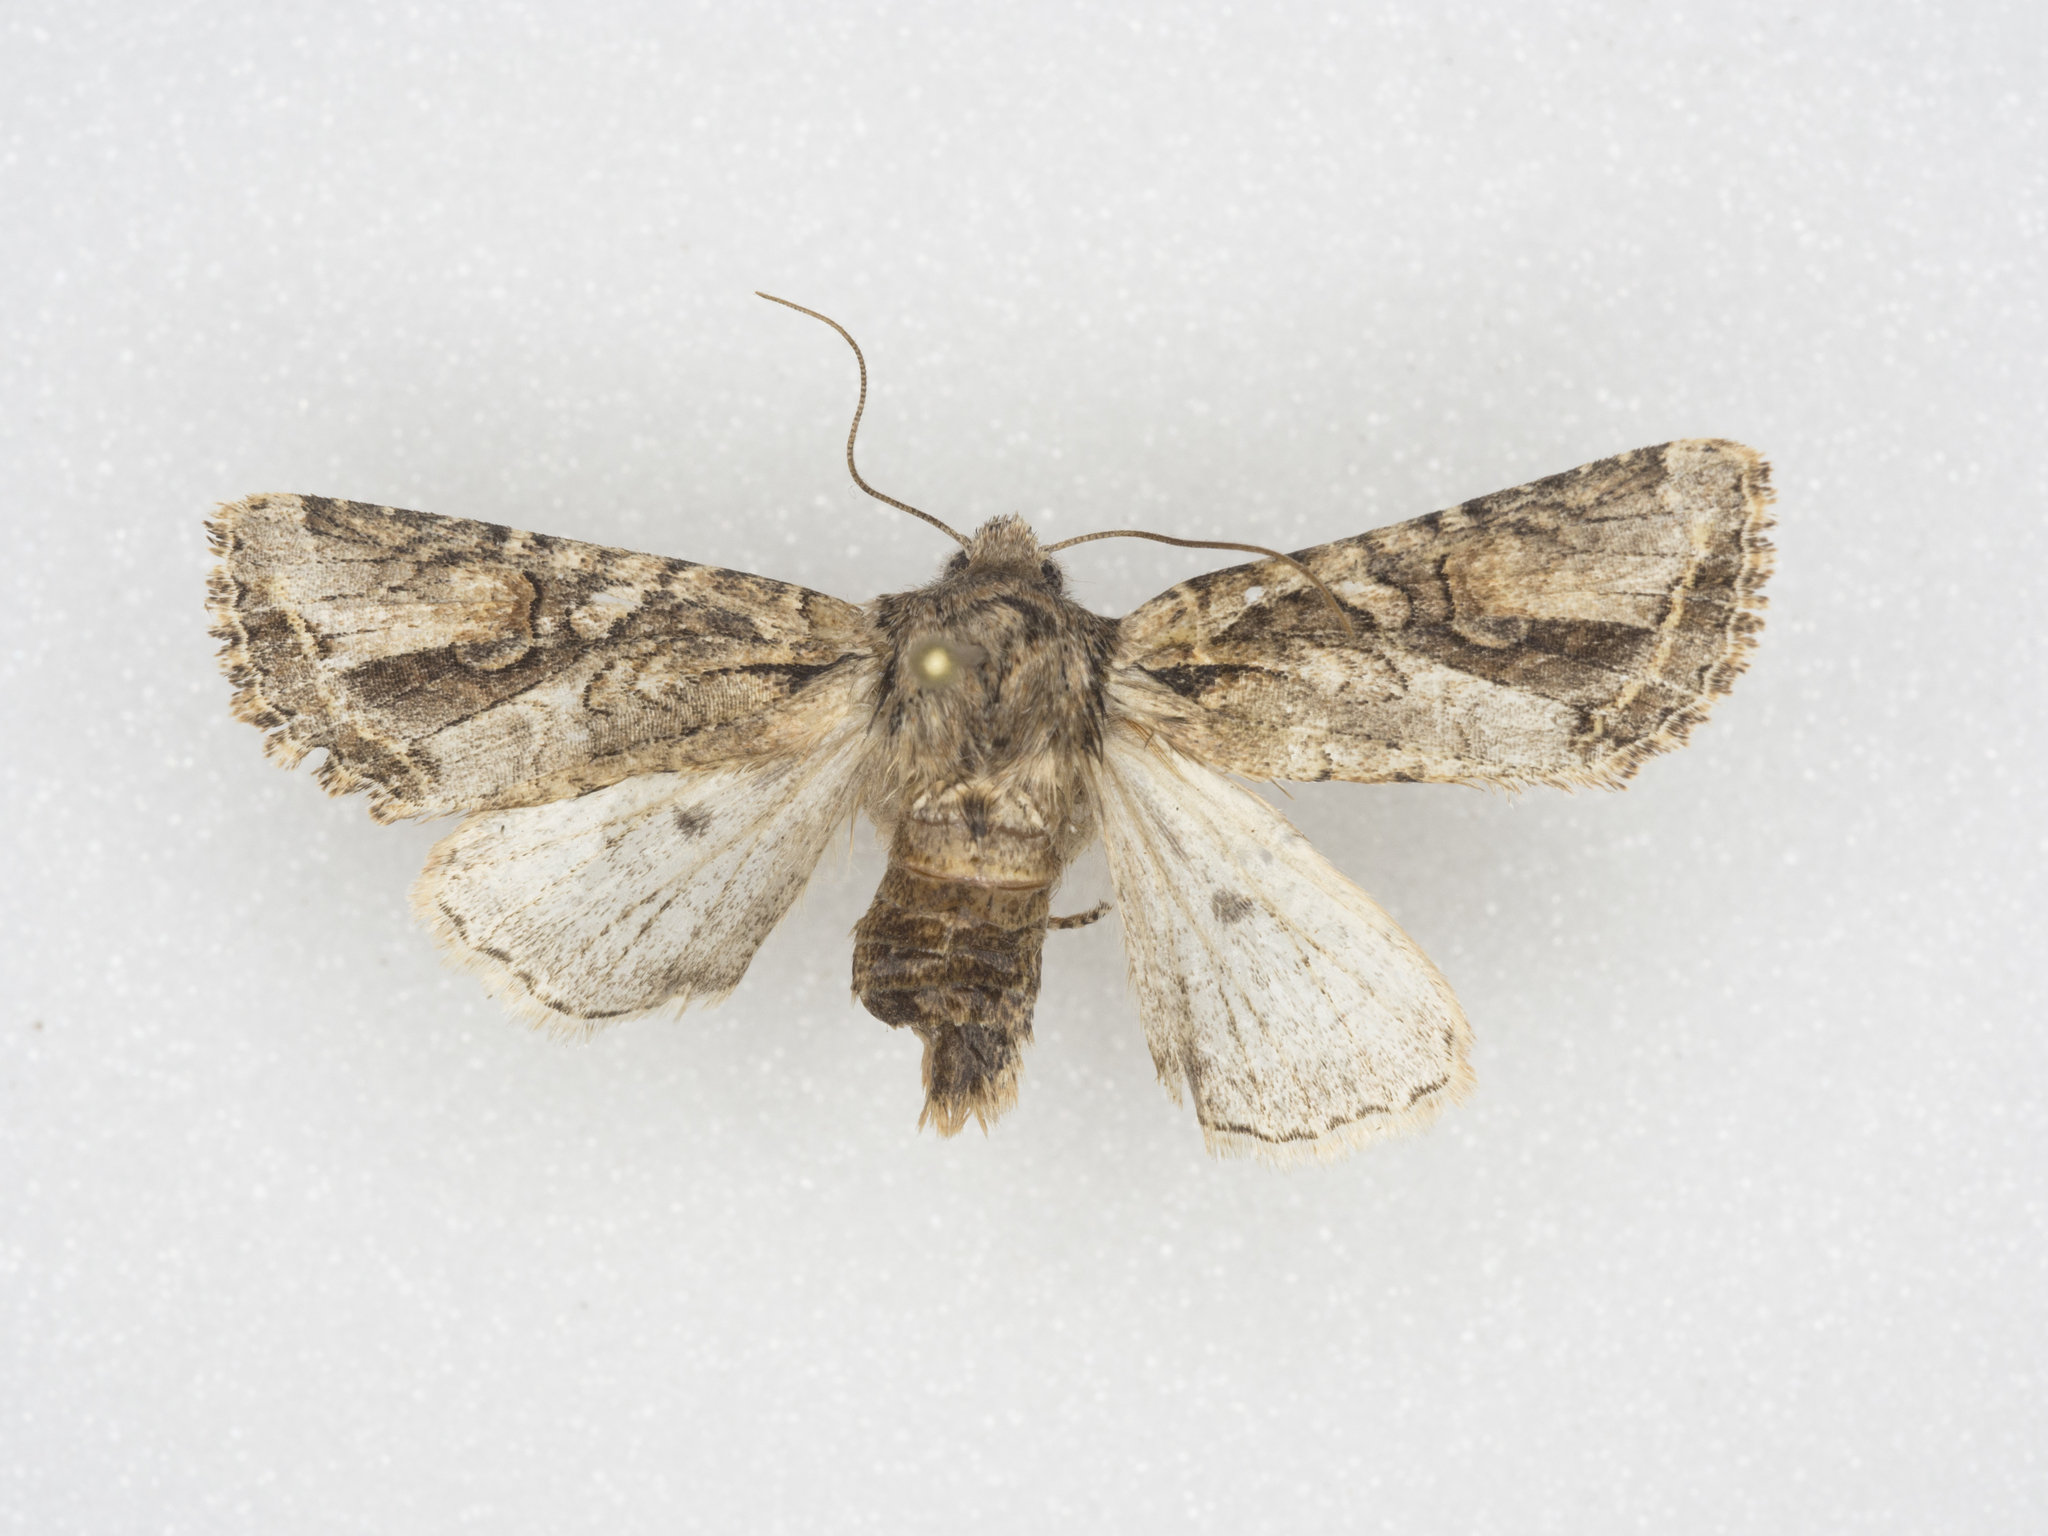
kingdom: Animalia
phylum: Arthropoda
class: Insecta
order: Lepidoptera
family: Noctuidae
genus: Egira
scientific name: Egira rubrica
